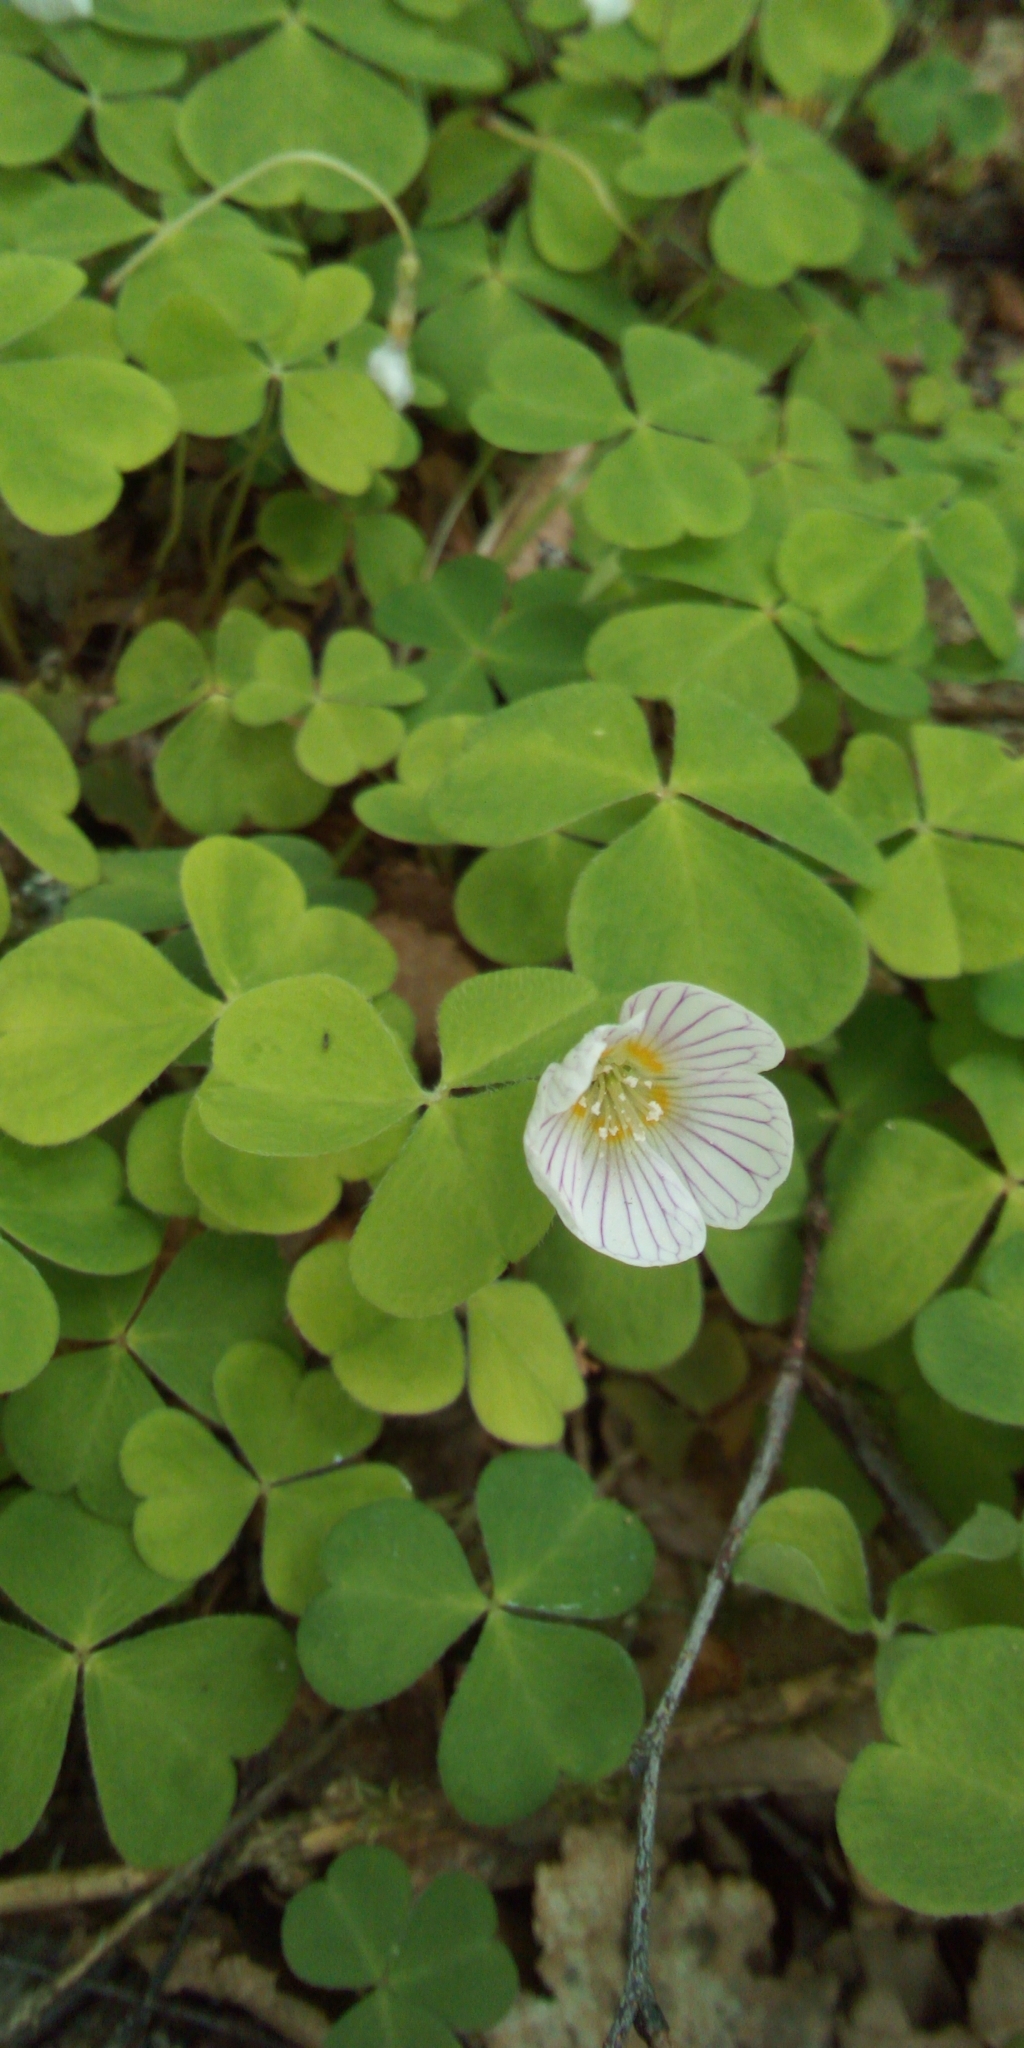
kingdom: Plantae
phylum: Tracheophyta
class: Magnoliopsida
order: Oxalidales
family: Oxalidaceae
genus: Oxalis
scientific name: Oxalis acetosella
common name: Wood-sorrel
